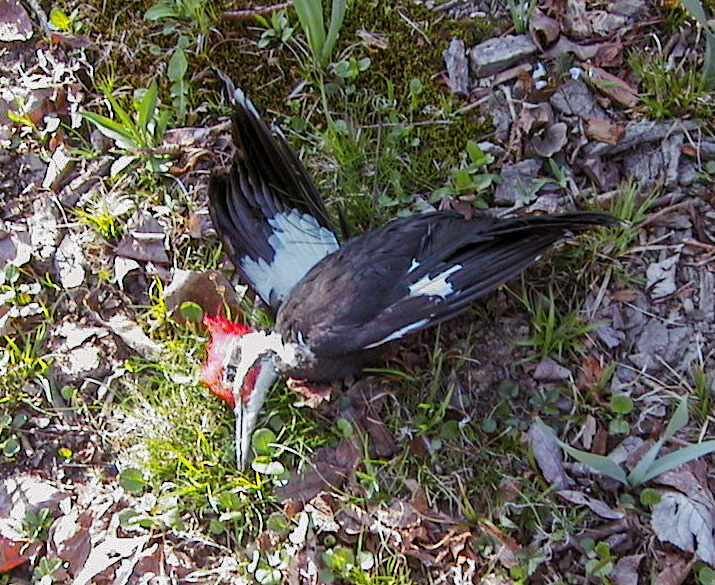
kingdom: Animalia
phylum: Chordata
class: Aves
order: Piciformes
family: Picidae
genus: Dryocopus
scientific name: Dryocopus pileatus
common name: Pileated woodpecker
